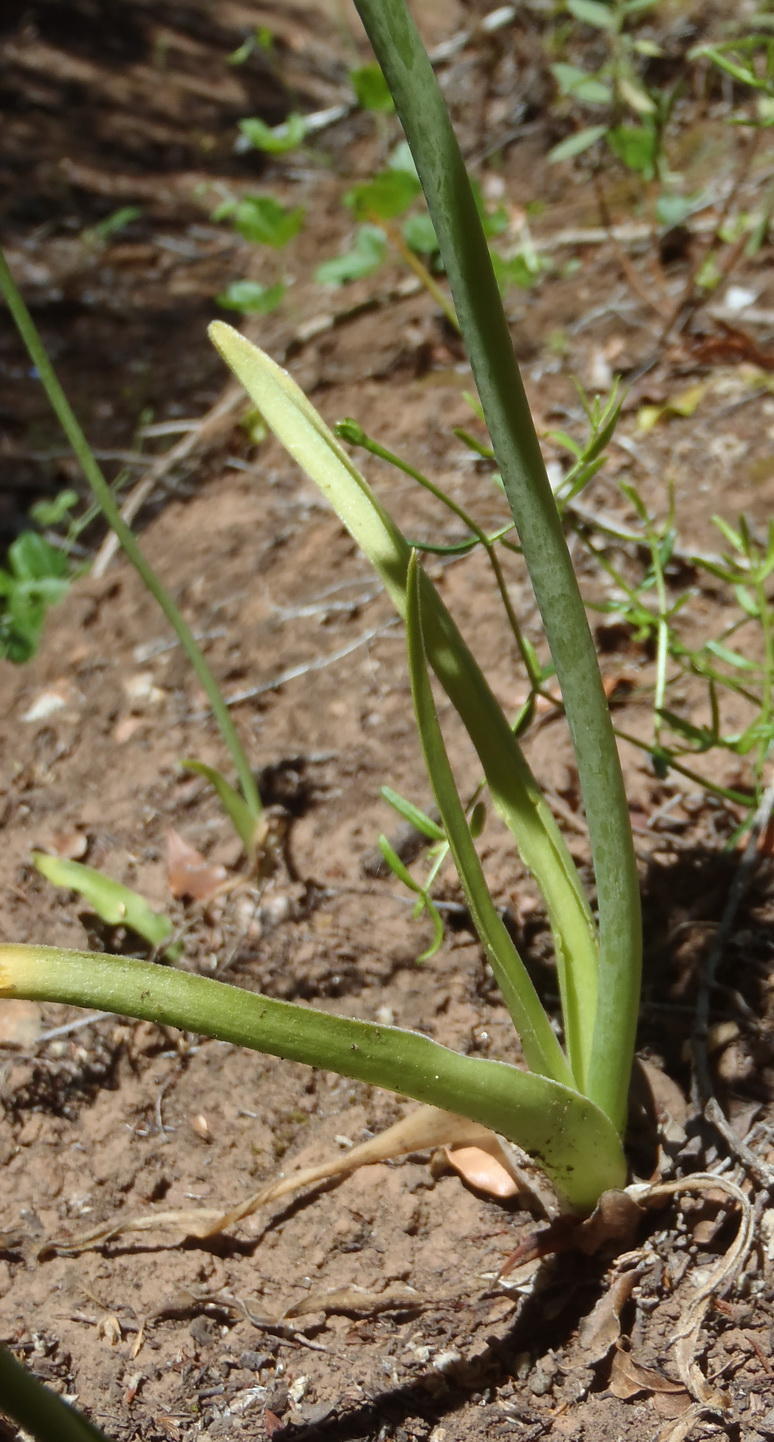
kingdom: Plantae
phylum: Tracheophyta
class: Liliopsida
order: Asparagales
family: Asparagaceae
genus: Ornithogalum
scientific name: Ornithogalum dubium
